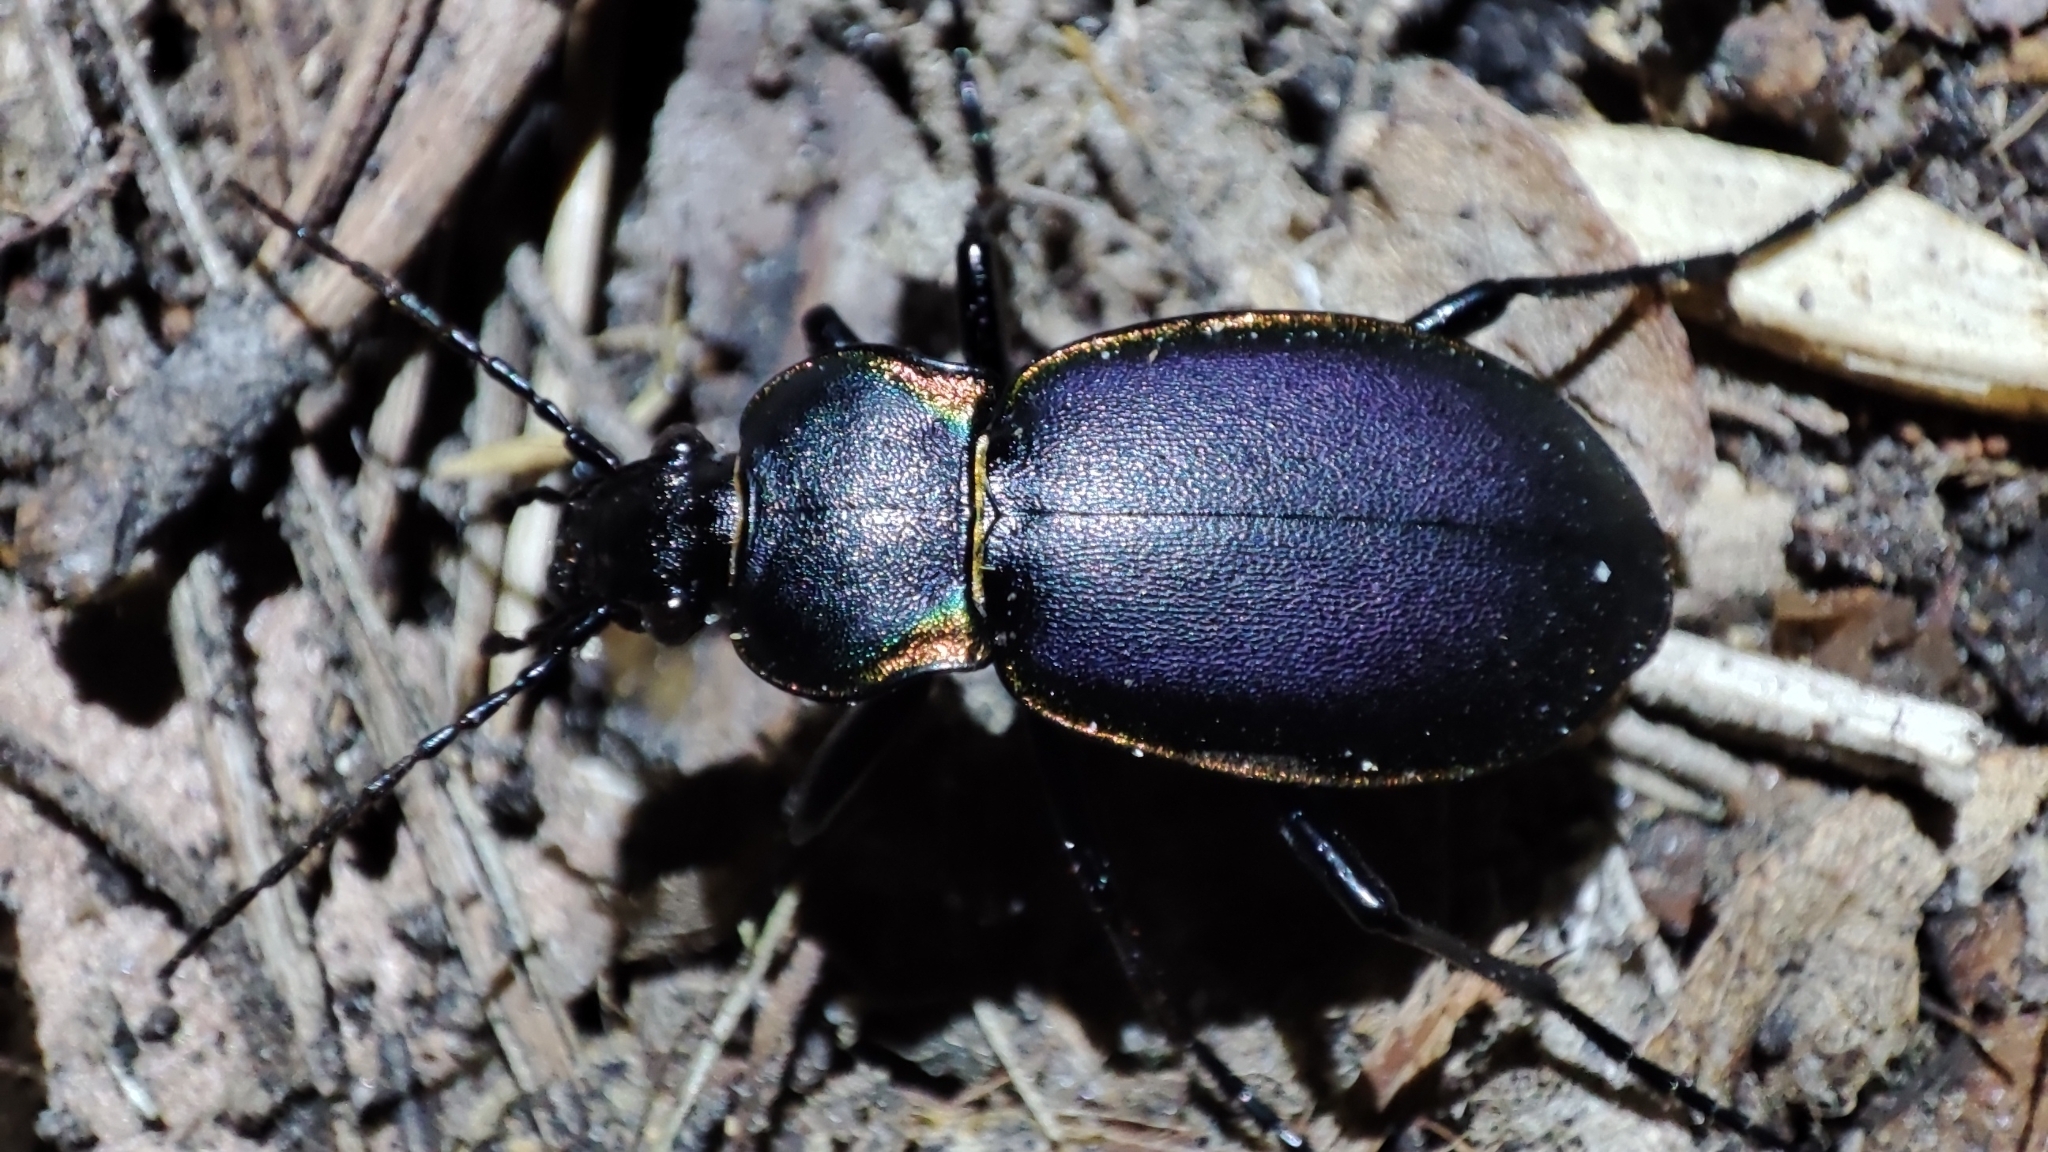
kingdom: Animalia
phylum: Arthropoda
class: Insecta
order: Coleoptera
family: Carabidae
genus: Carabus
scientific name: Carabus marginalis
